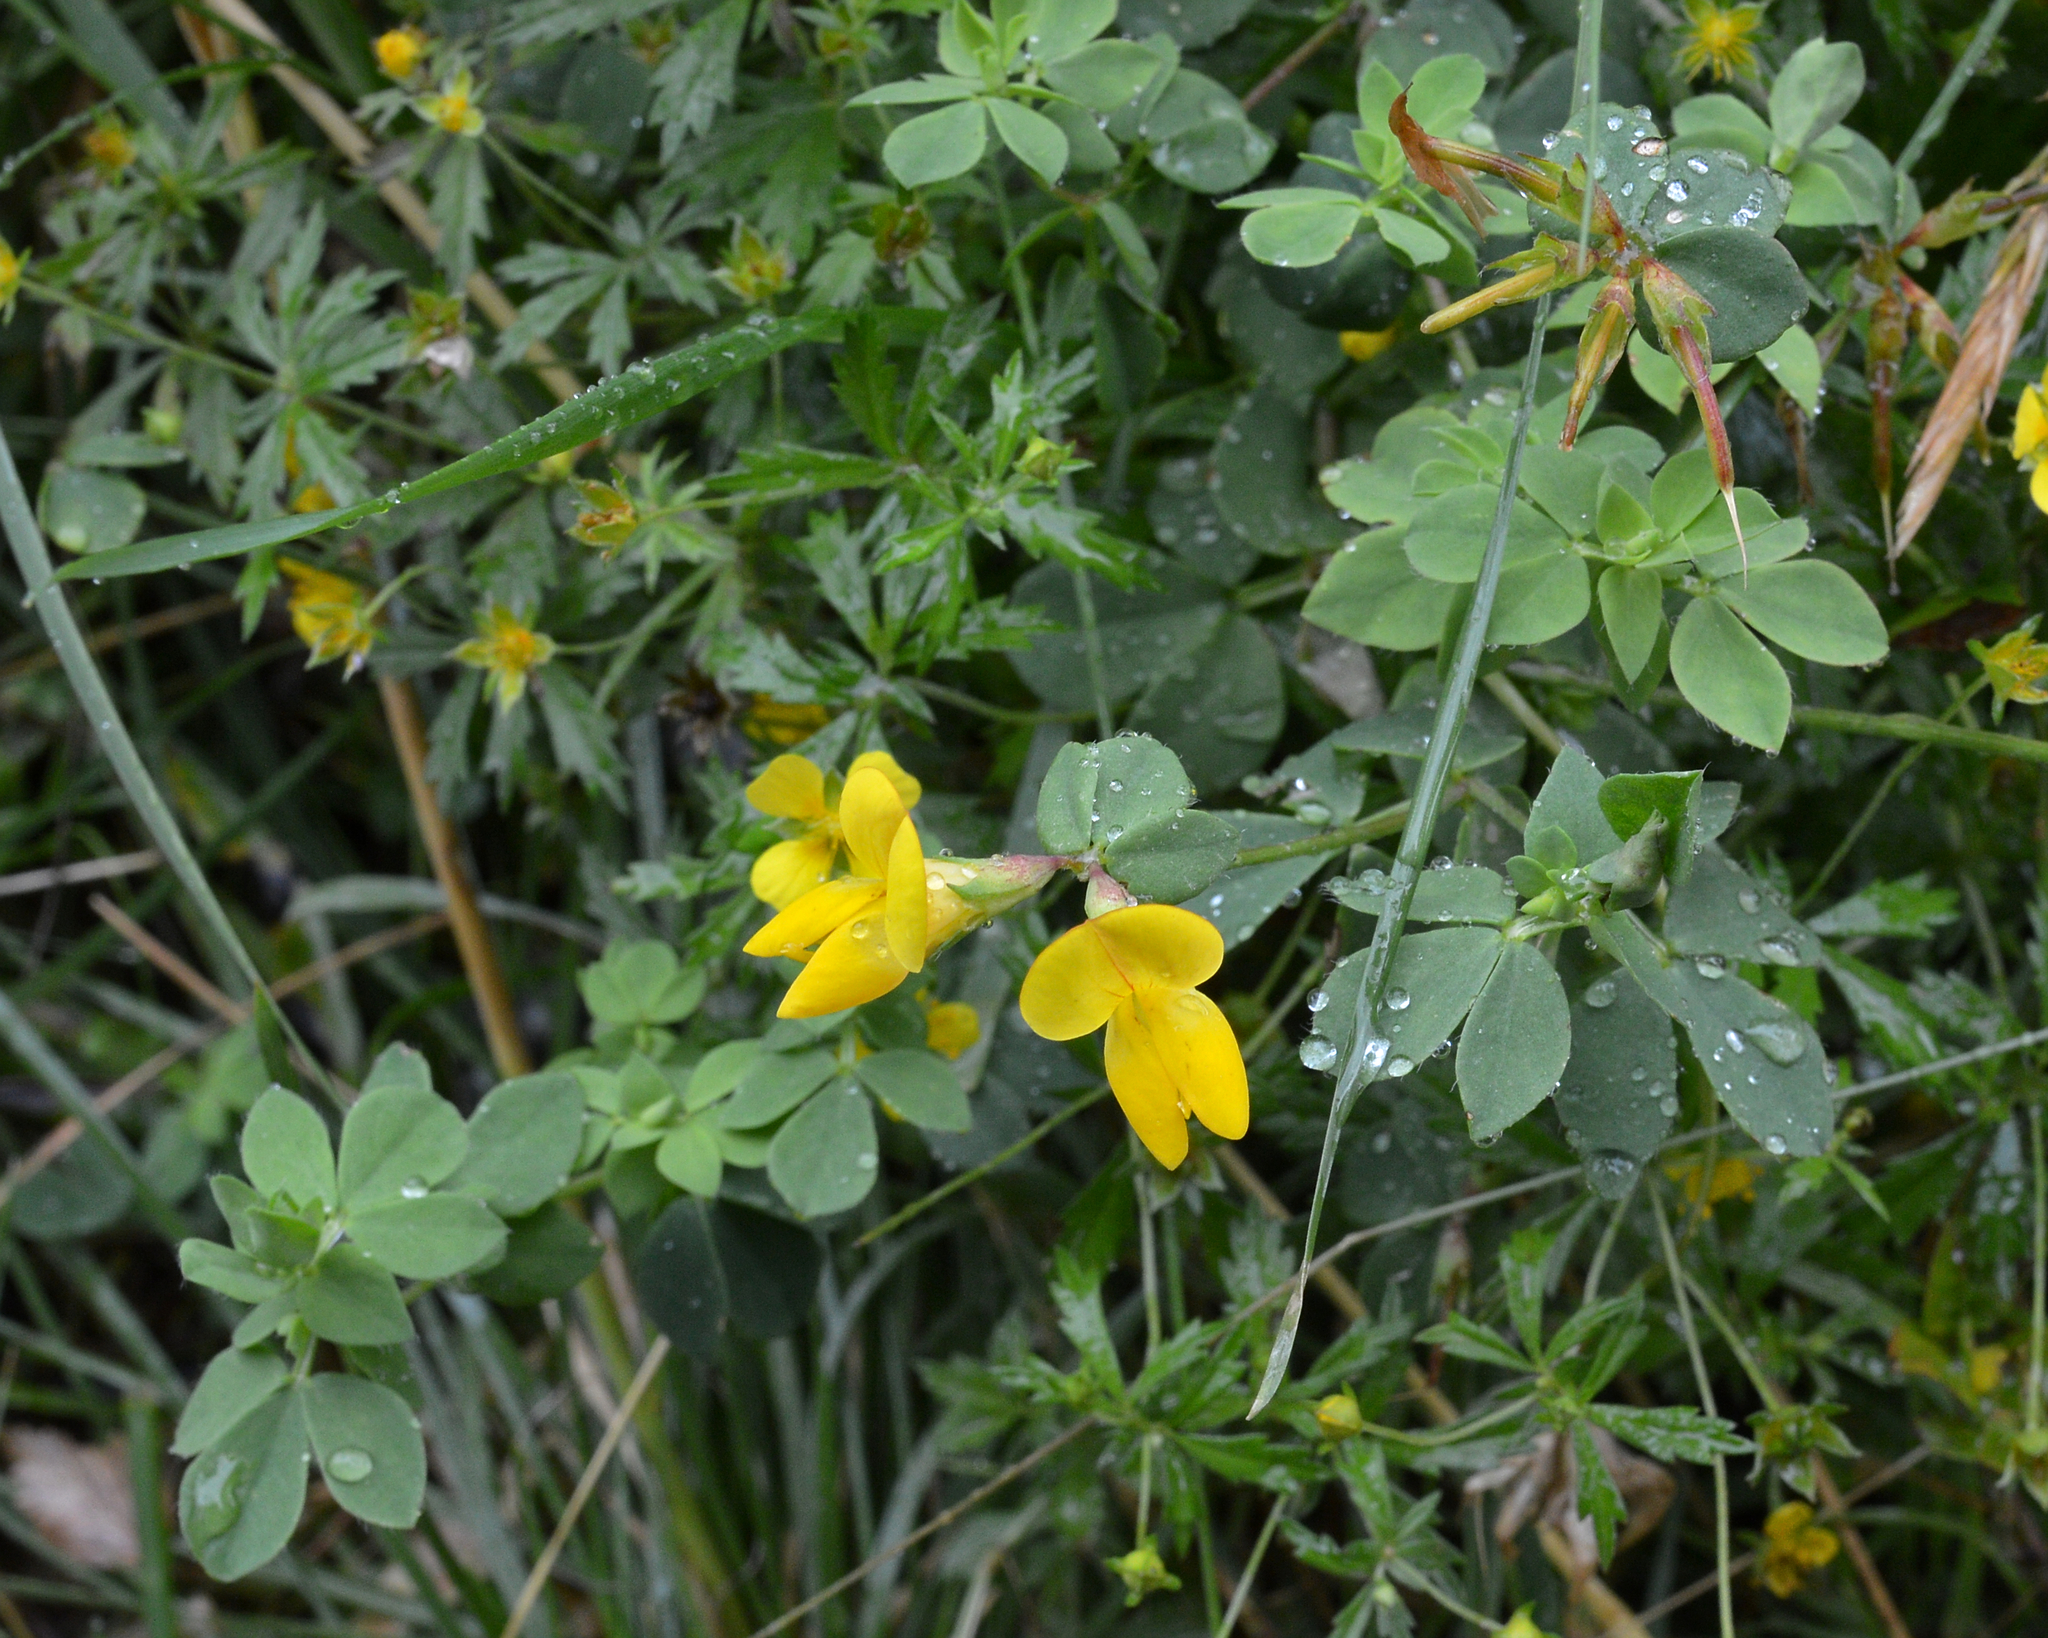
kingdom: Plantae
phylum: Tracheophyta
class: Magnoliopsida
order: Fabales
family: Fabaceae
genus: Lotus
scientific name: Lotus corniculatus
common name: Common bird's-foot-trefoil
